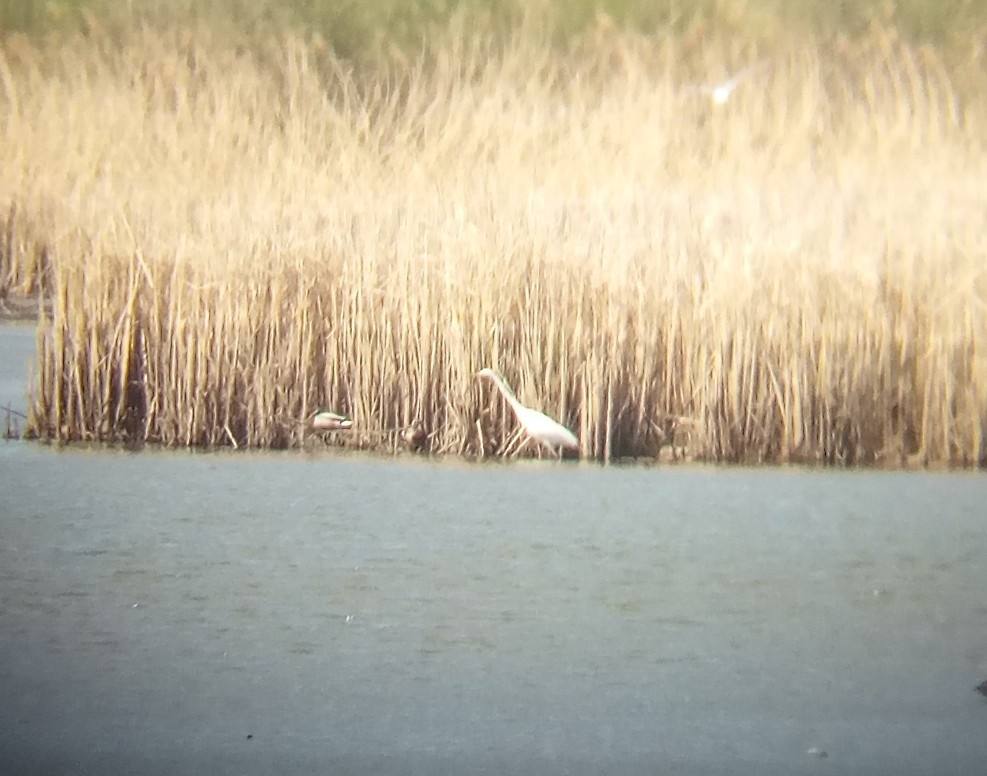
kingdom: Animalia
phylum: Chordata
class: Aves
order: Pelecaniformes
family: Ardeidae
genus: Ardea
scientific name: Ardea alba
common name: Great egret
